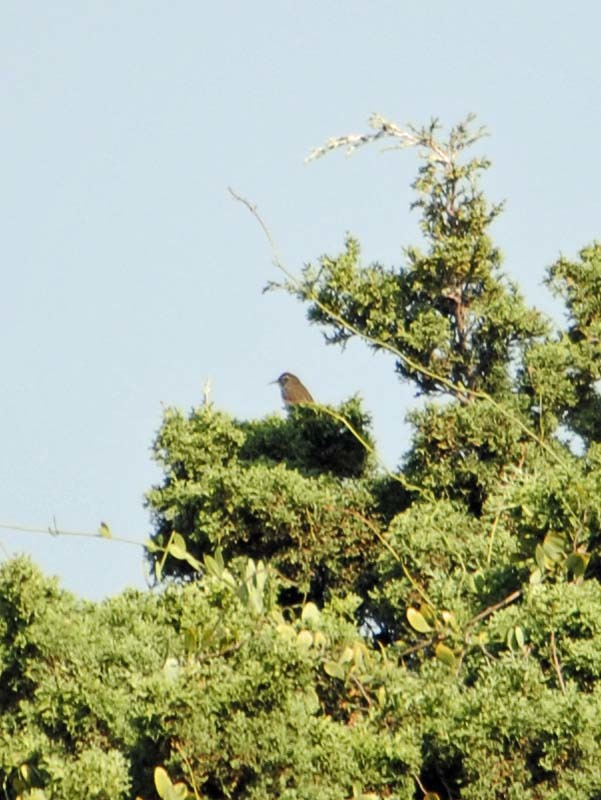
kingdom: Animalia
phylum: Chordata
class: Aves
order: Passeriformes
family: Troglodytidae
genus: Thryomanes
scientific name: Thryomanes bewickii
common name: Bewick's wren
